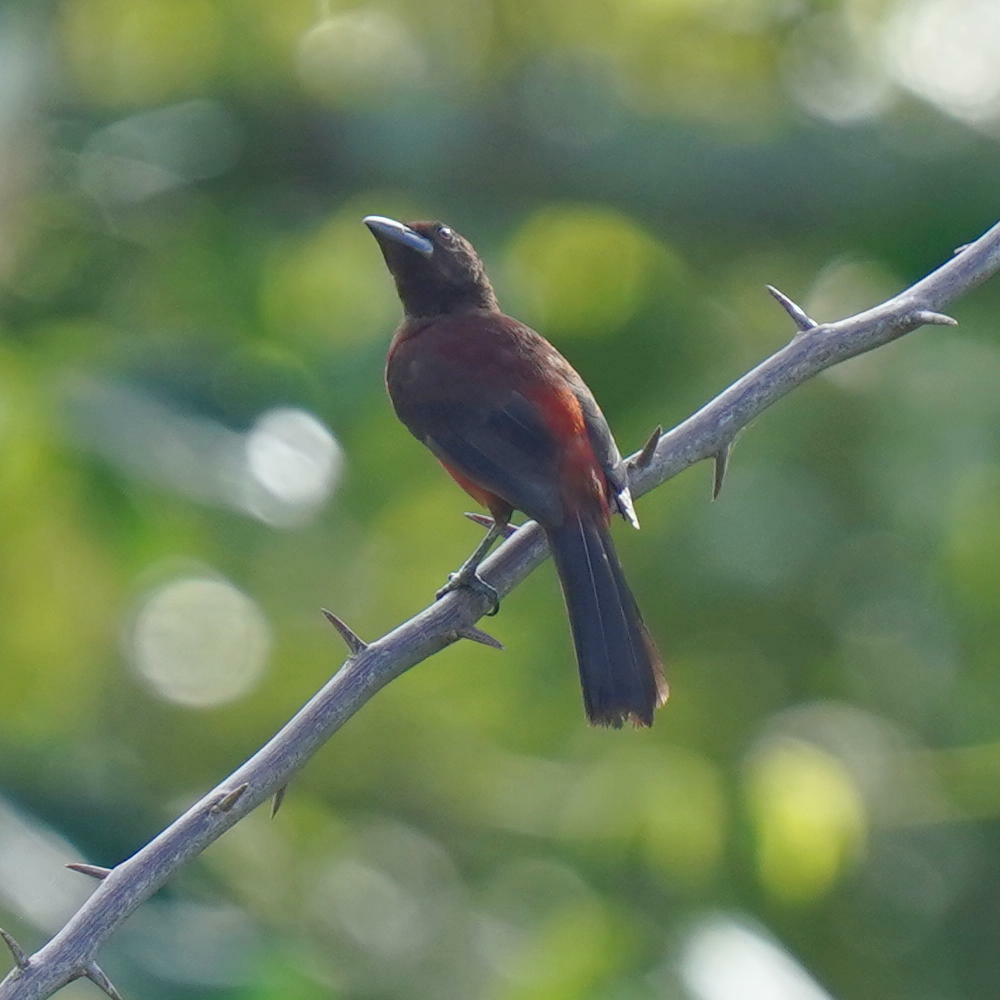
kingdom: Animalia
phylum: Chordata
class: Aves
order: Passeriformes
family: Thraupidae
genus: Ramphocelus
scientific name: Ramphocelus dimidiatus
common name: Crimson-backed tanager
